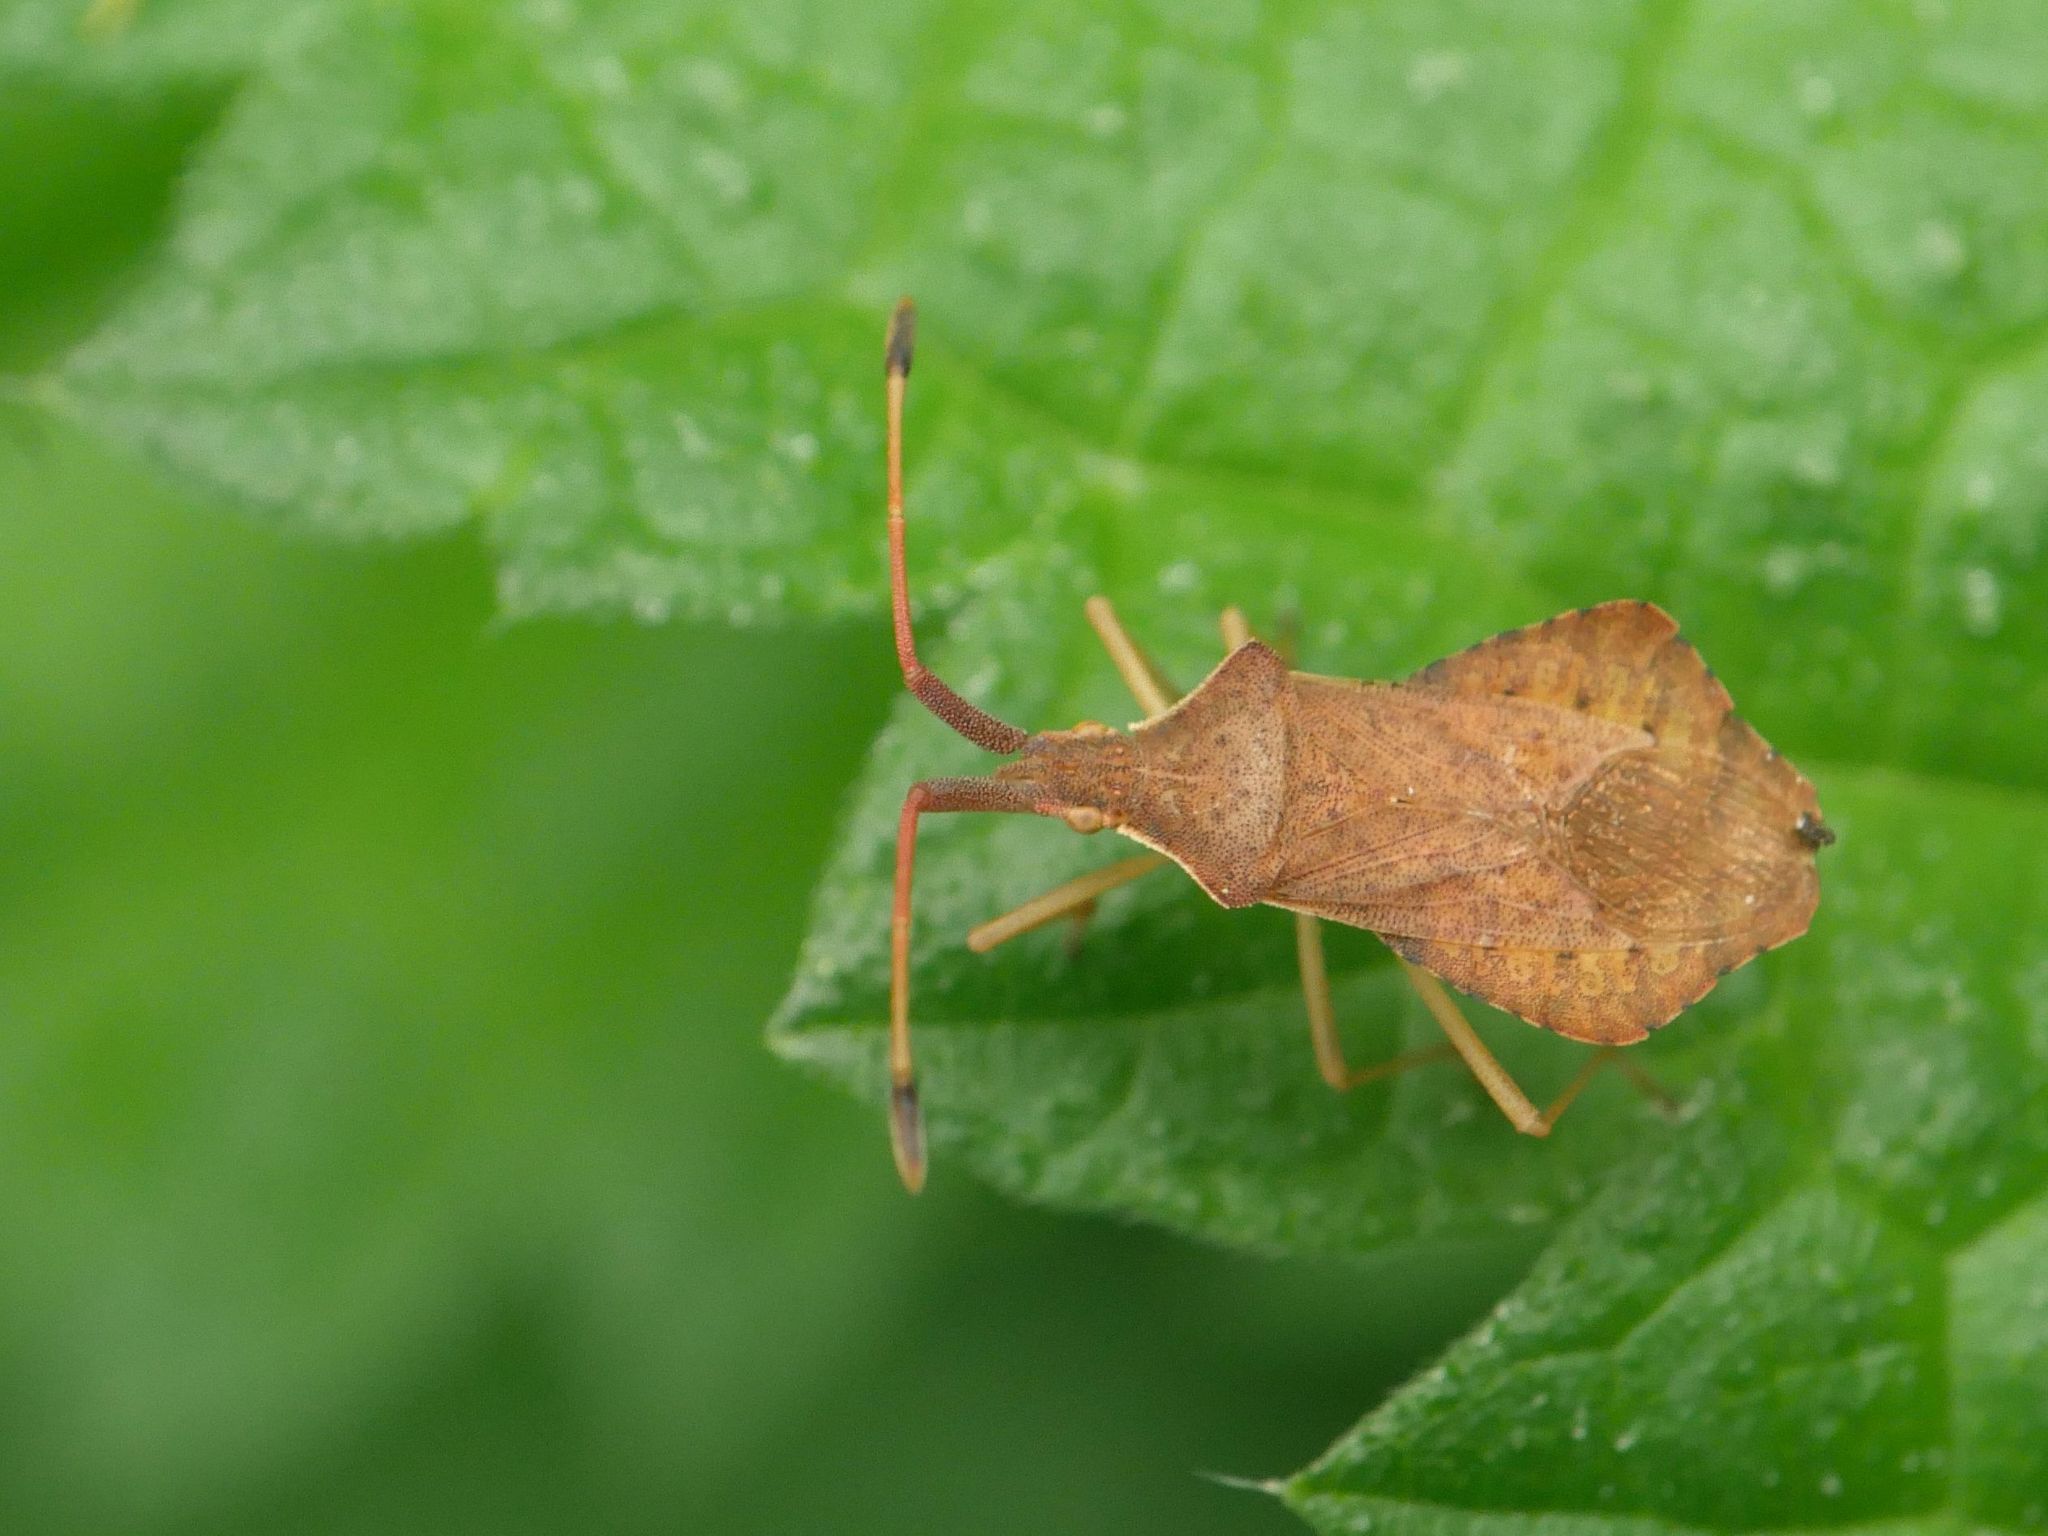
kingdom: Animalia
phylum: Arthropoda
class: Insecta
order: Hemiptera
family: Coreidae
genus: Syromastus
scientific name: Syromastus rhombeus
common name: Rhombic leatherbug
